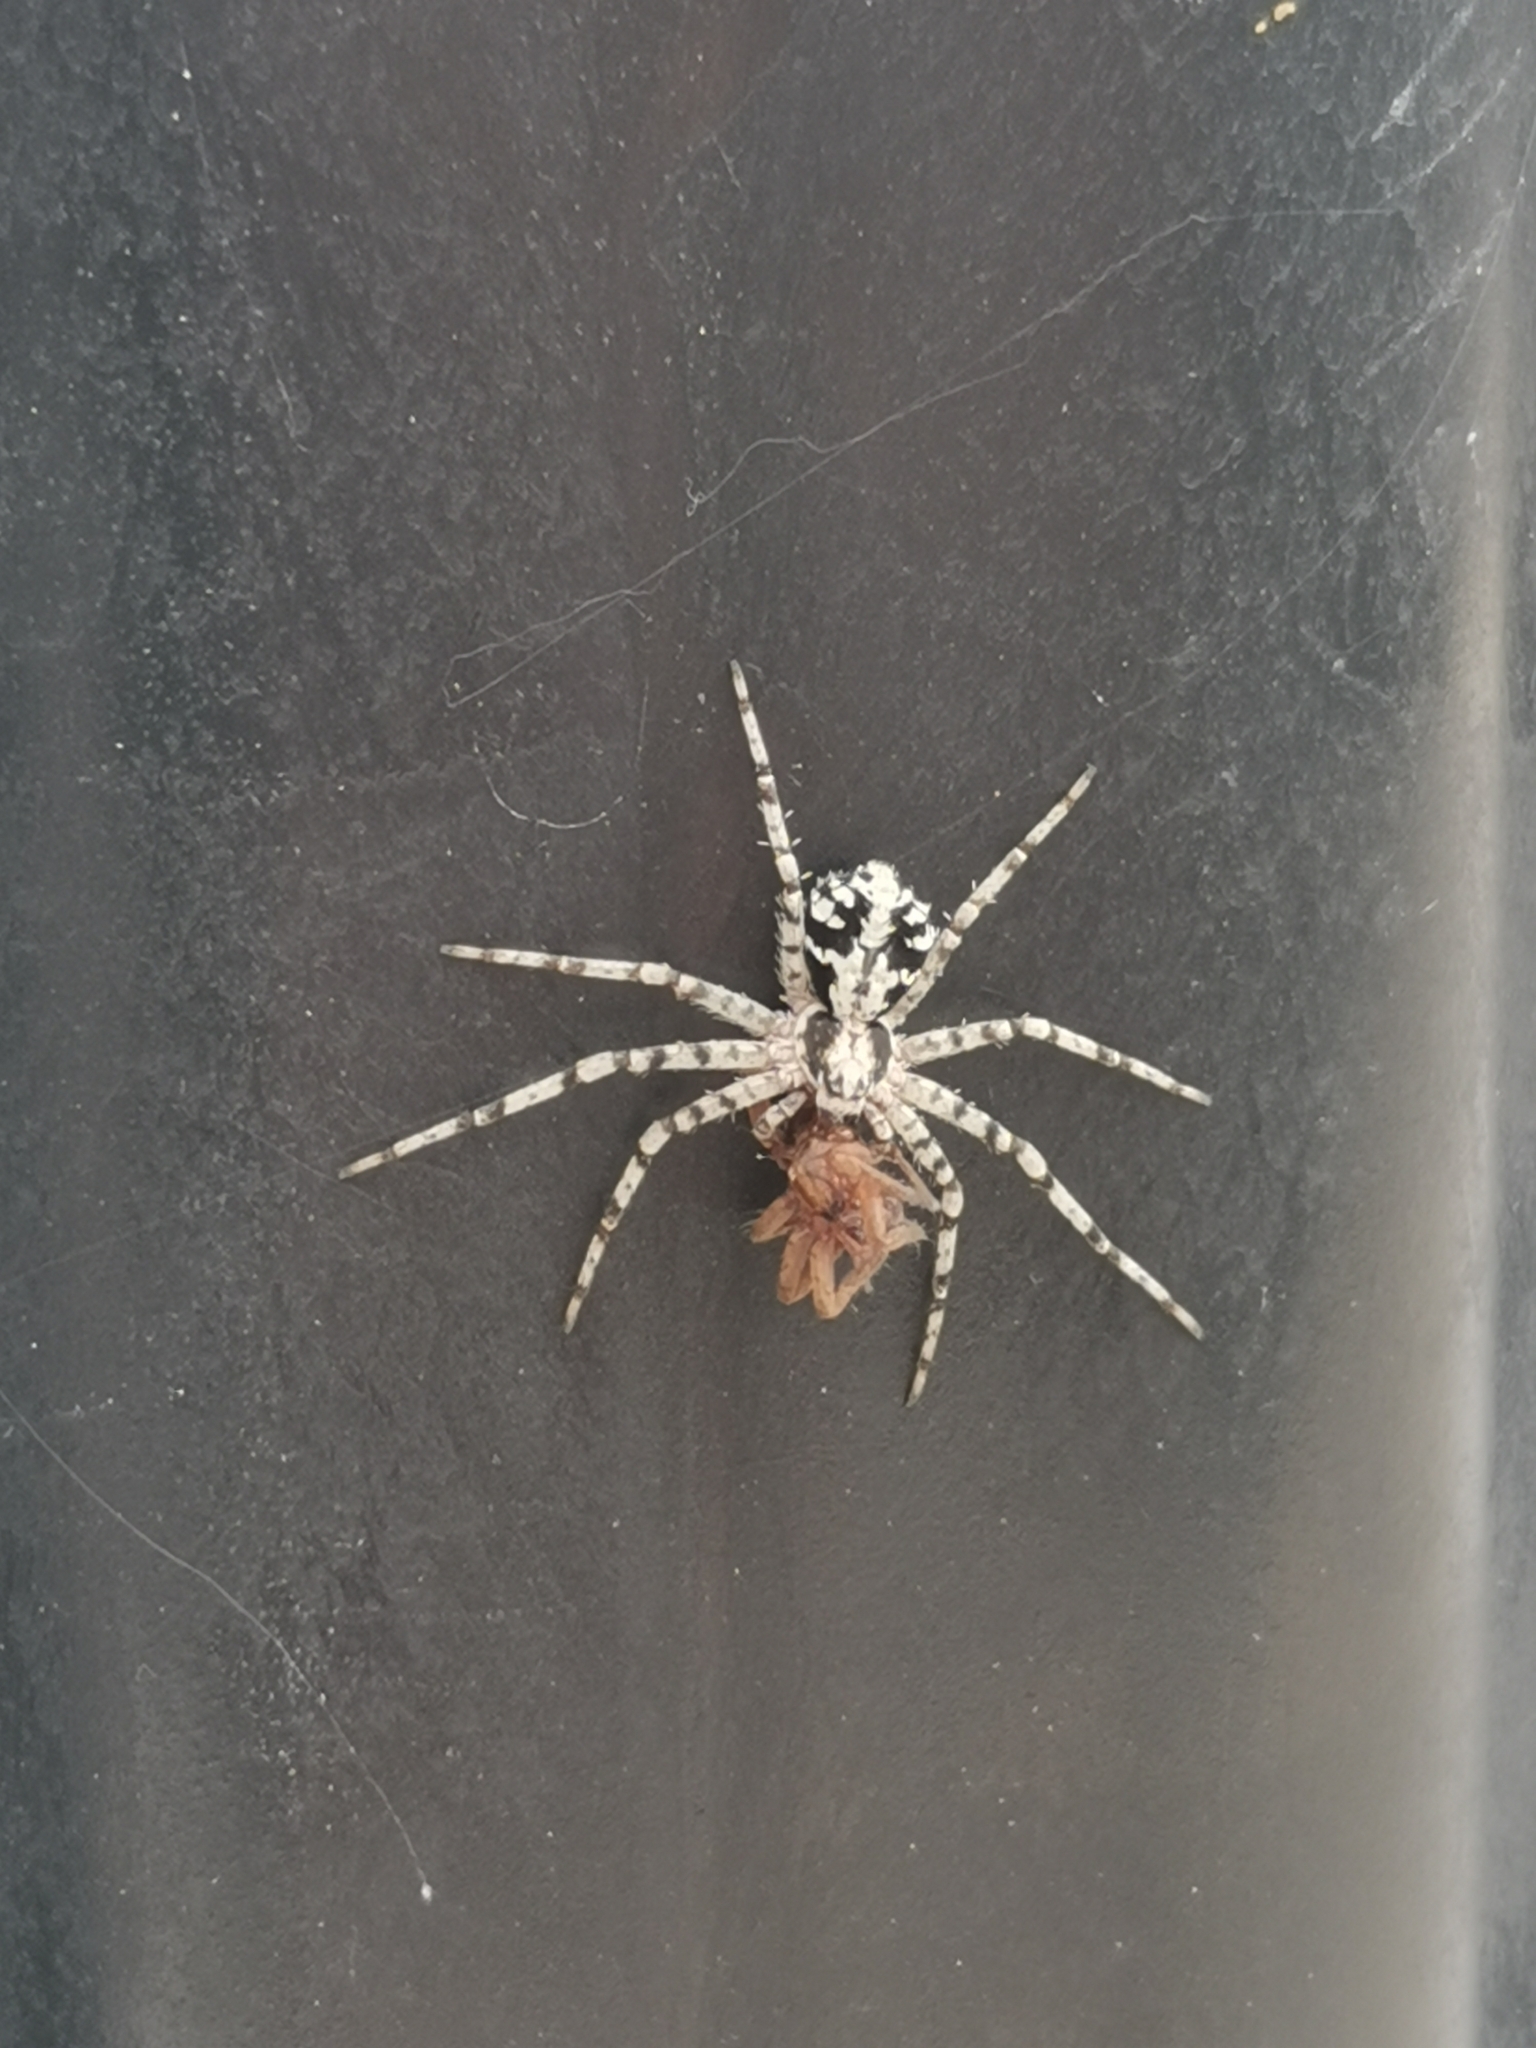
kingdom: Animalia
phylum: Arthropoda
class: Arachnida
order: Araneae
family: Philodromidae
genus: Philodromus
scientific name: Philodromus margaritatus
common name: Lichen running-spider
